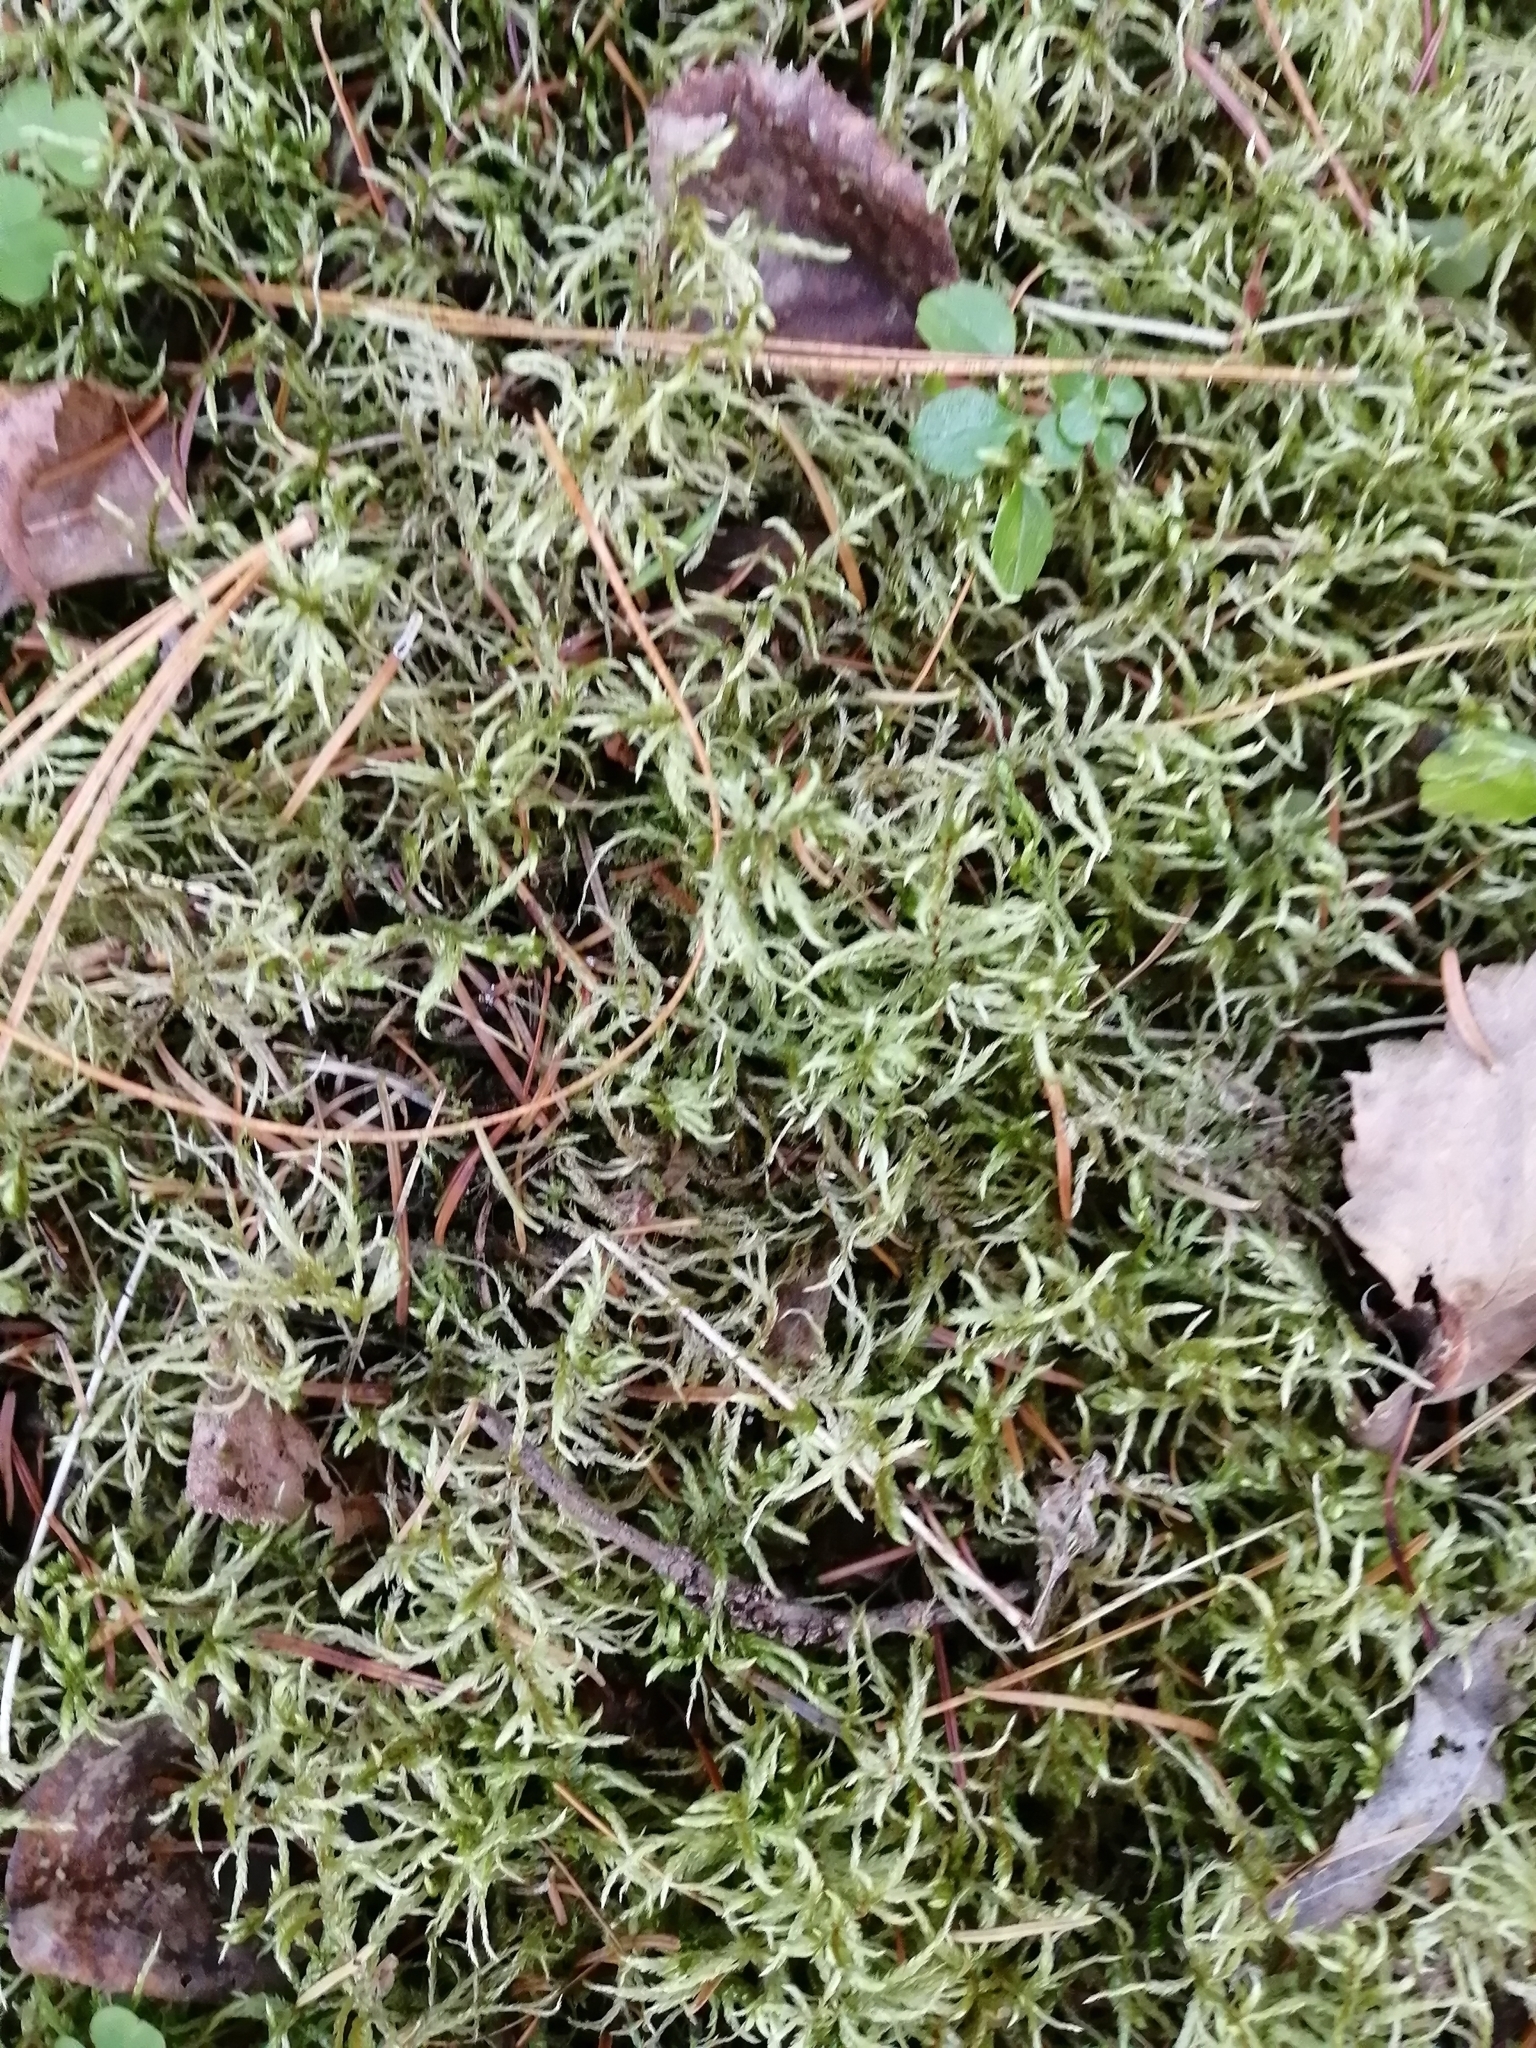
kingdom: Plantae
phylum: Bryophyta
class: Bryopsida
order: Hypnales
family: Hylocomiaceae
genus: Pleurozium
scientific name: Pleurozium schreberi
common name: Red-stemmed feather moss
